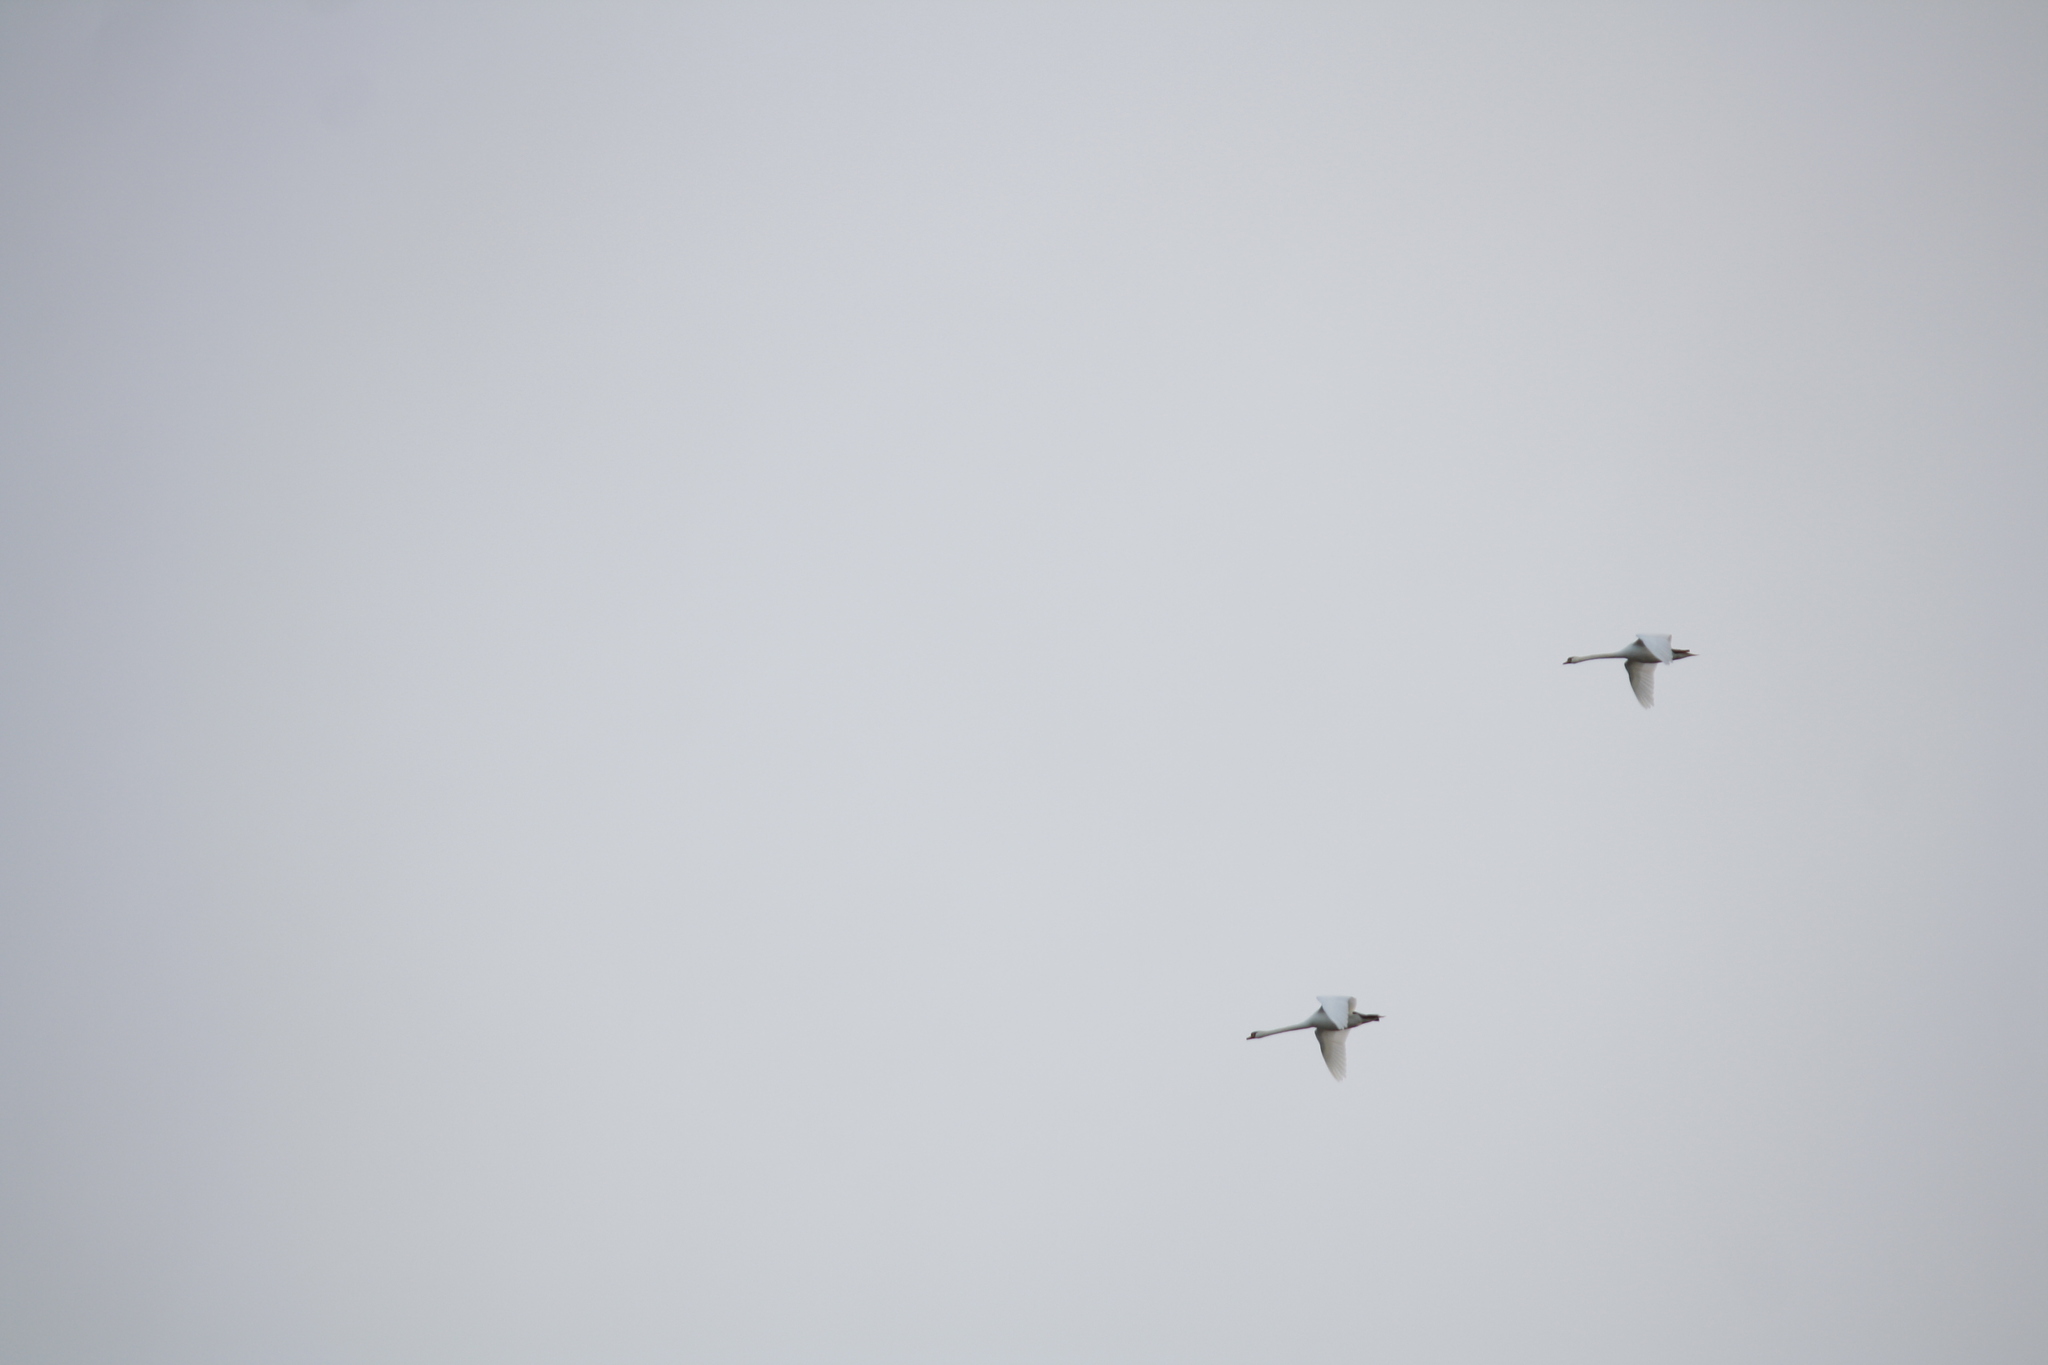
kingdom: Animalia
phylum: Chordata
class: Aves
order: Anseriformes
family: Anatidae
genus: Cygnus
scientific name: Cygnus olor
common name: Mute swan
